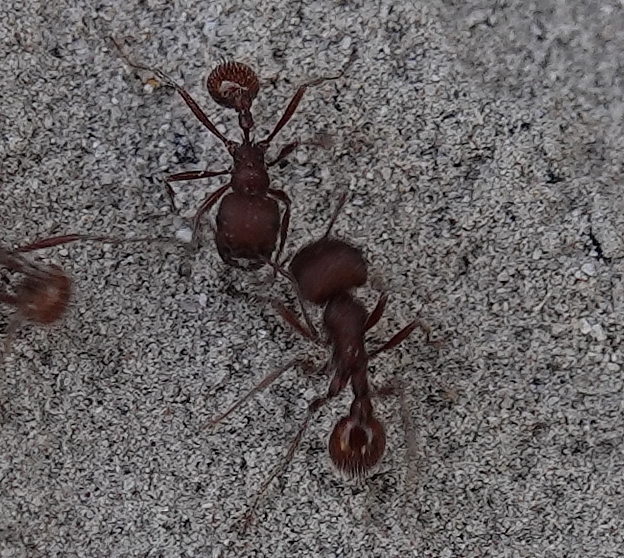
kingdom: Animalia
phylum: Arthropoda
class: Insecta
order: Hymenoptera
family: Formicidae
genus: Pogonomyrmex
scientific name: Pogonomyrmex occidentalis
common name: Western harvester ant
